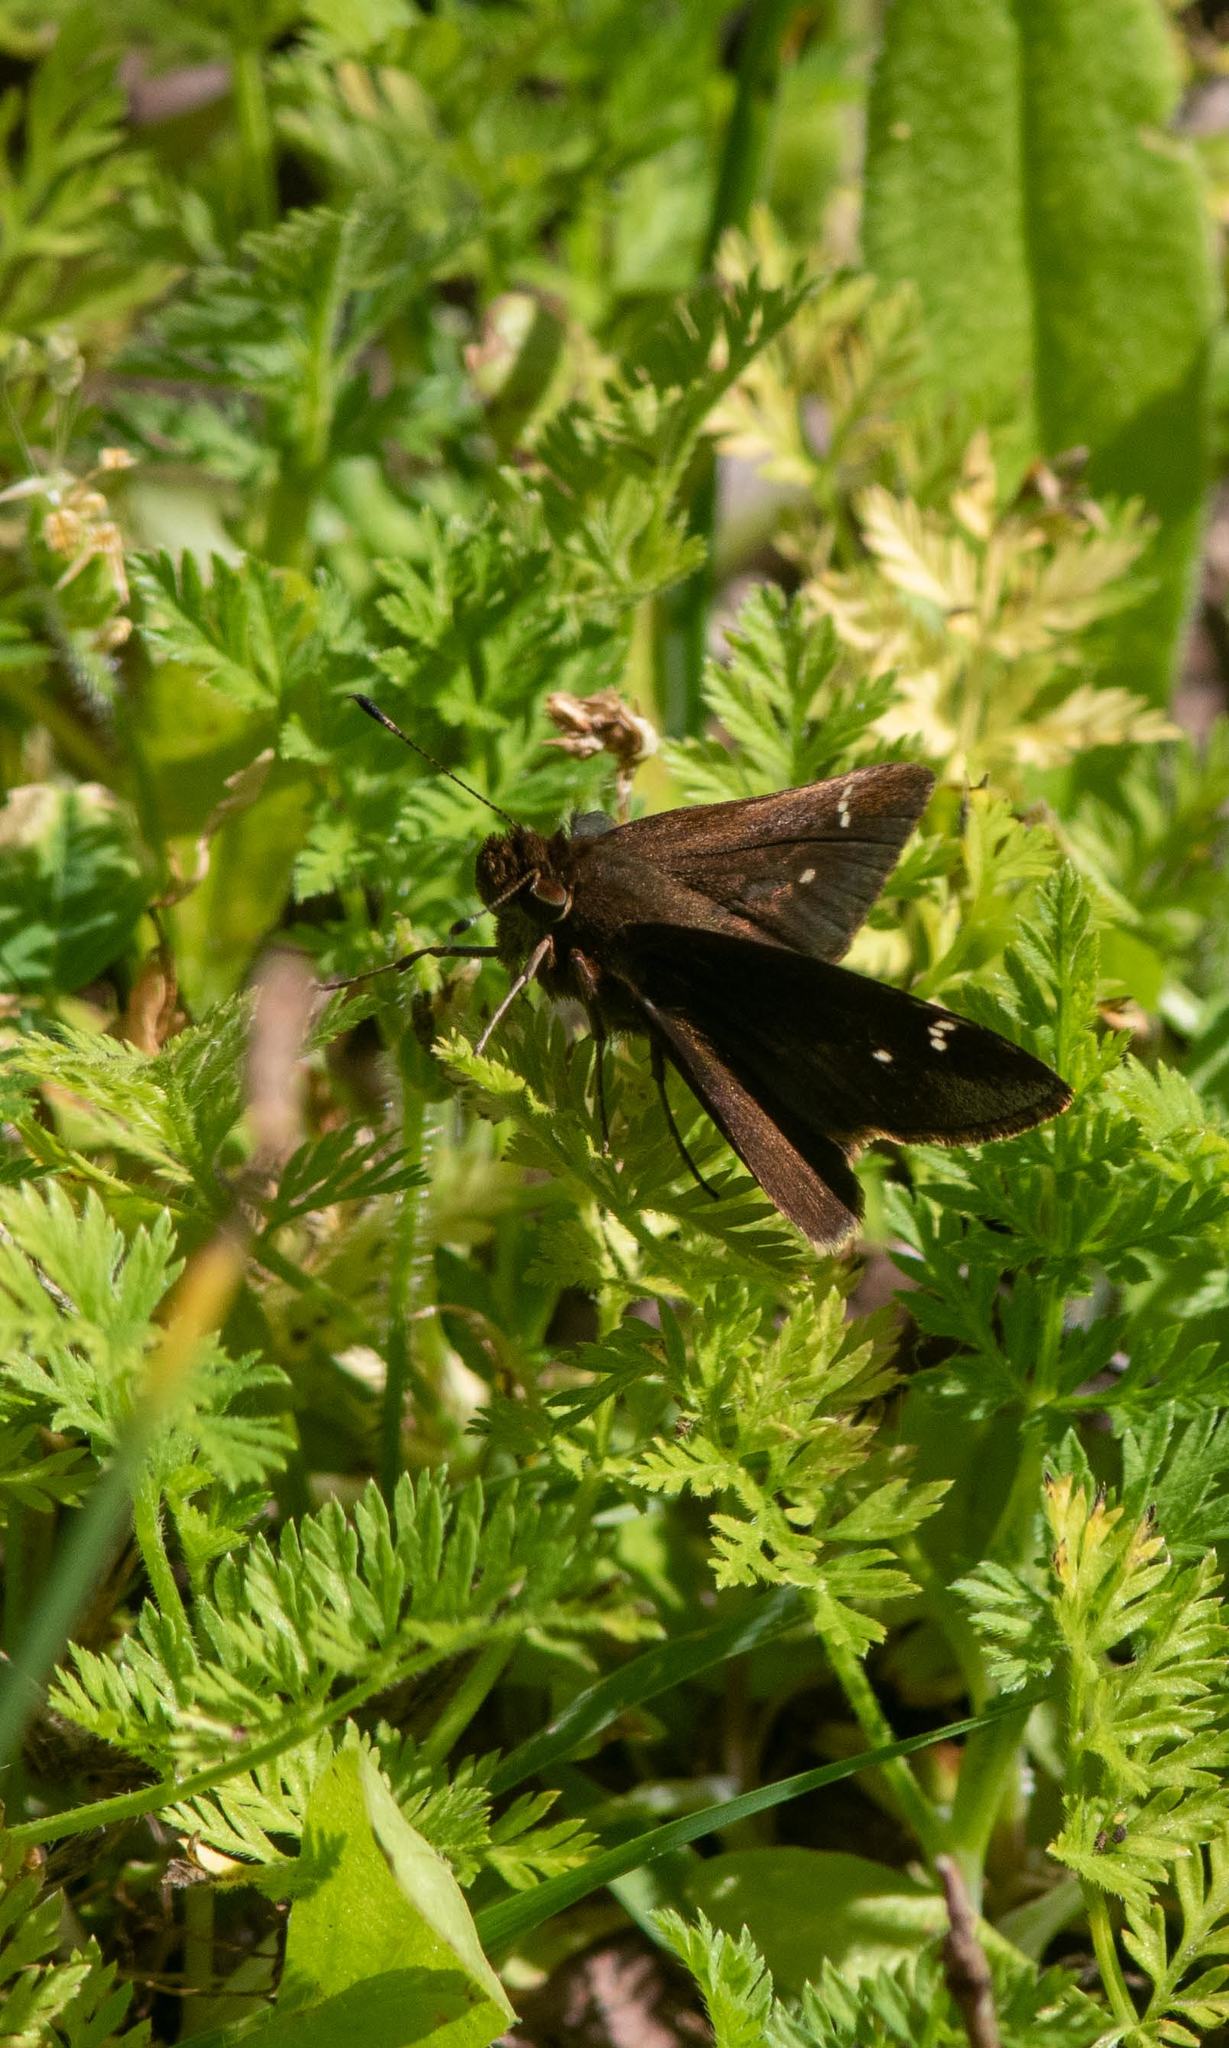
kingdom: Animalia
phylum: Arthropoda
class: Insecta
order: Lepidoptera
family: Hesperiidae
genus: Lerema
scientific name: Lerema accius
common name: Clouded skipper
